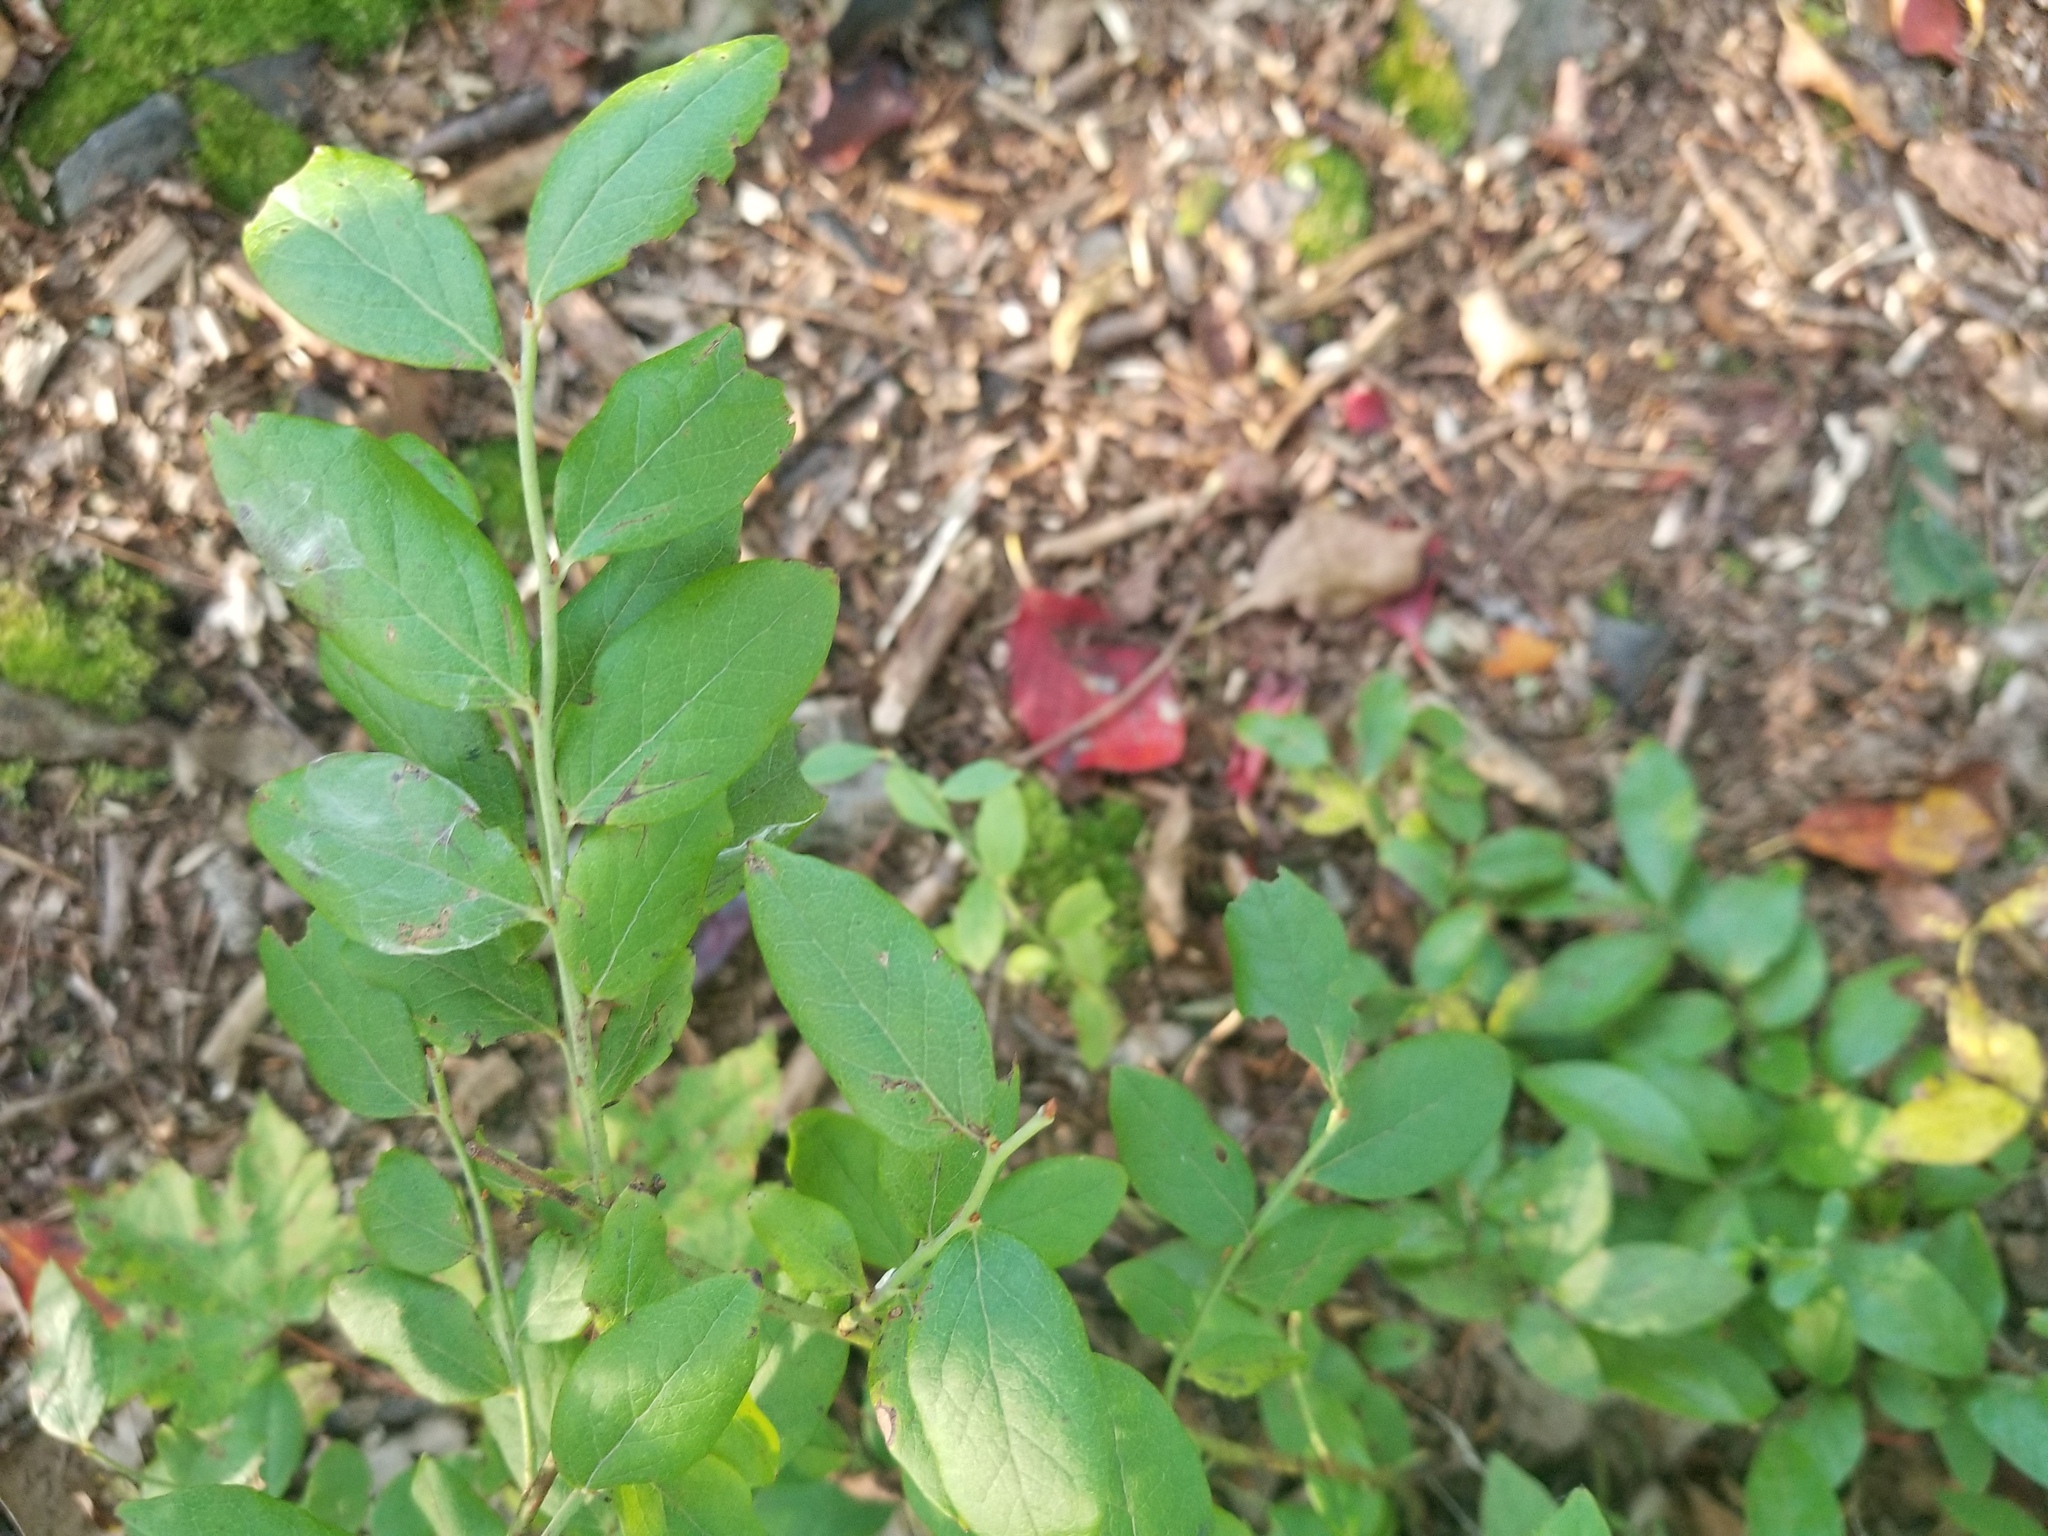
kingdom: Plantae
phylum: Tracheophyta
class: Magnoliopsida
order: Ericales
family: Ericaceae
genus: Vaccinium
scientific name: Vaccinium pallidum
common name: Blue ridge blueberry
